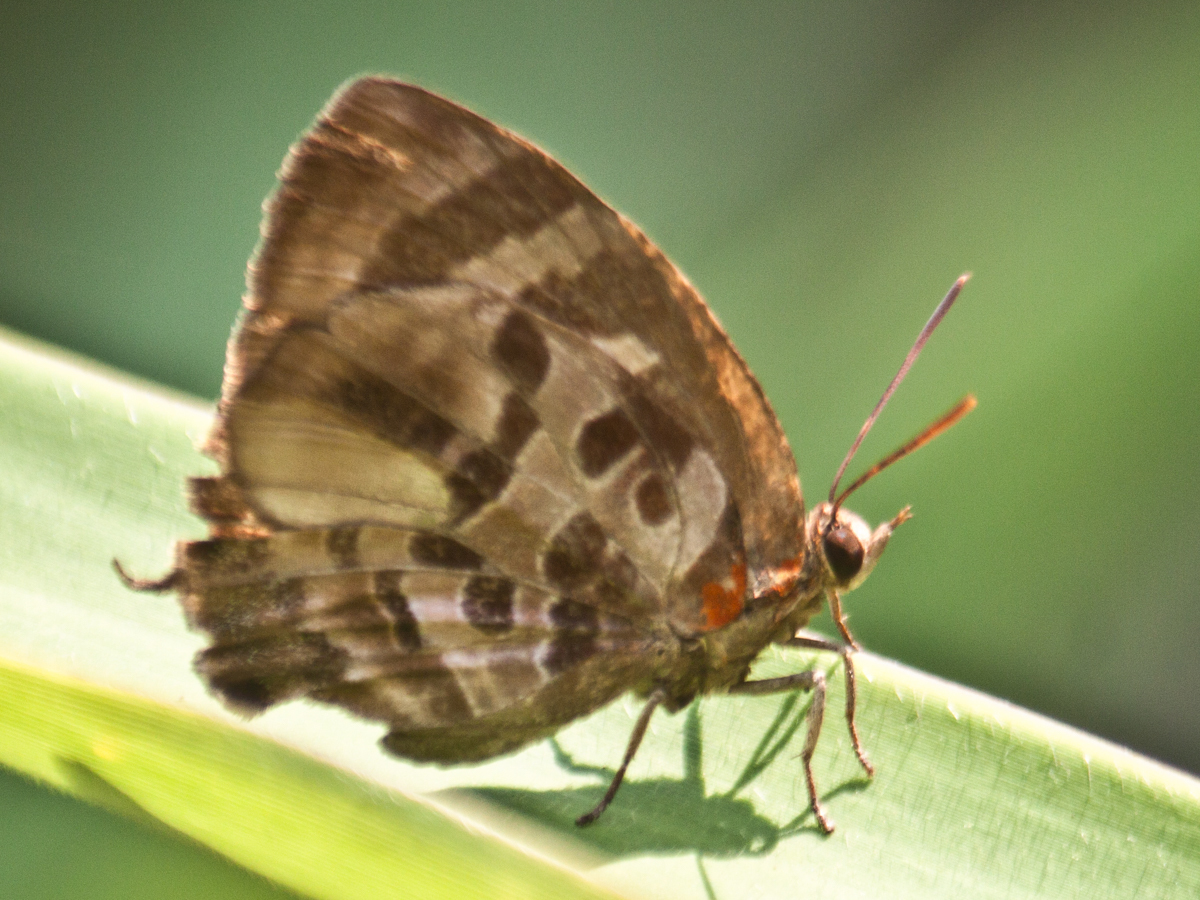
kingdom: Animalia
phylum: Arthropoda
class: Insecta
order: Lepidoptera
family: Lycaenidae
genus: Flos
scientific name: Flos
